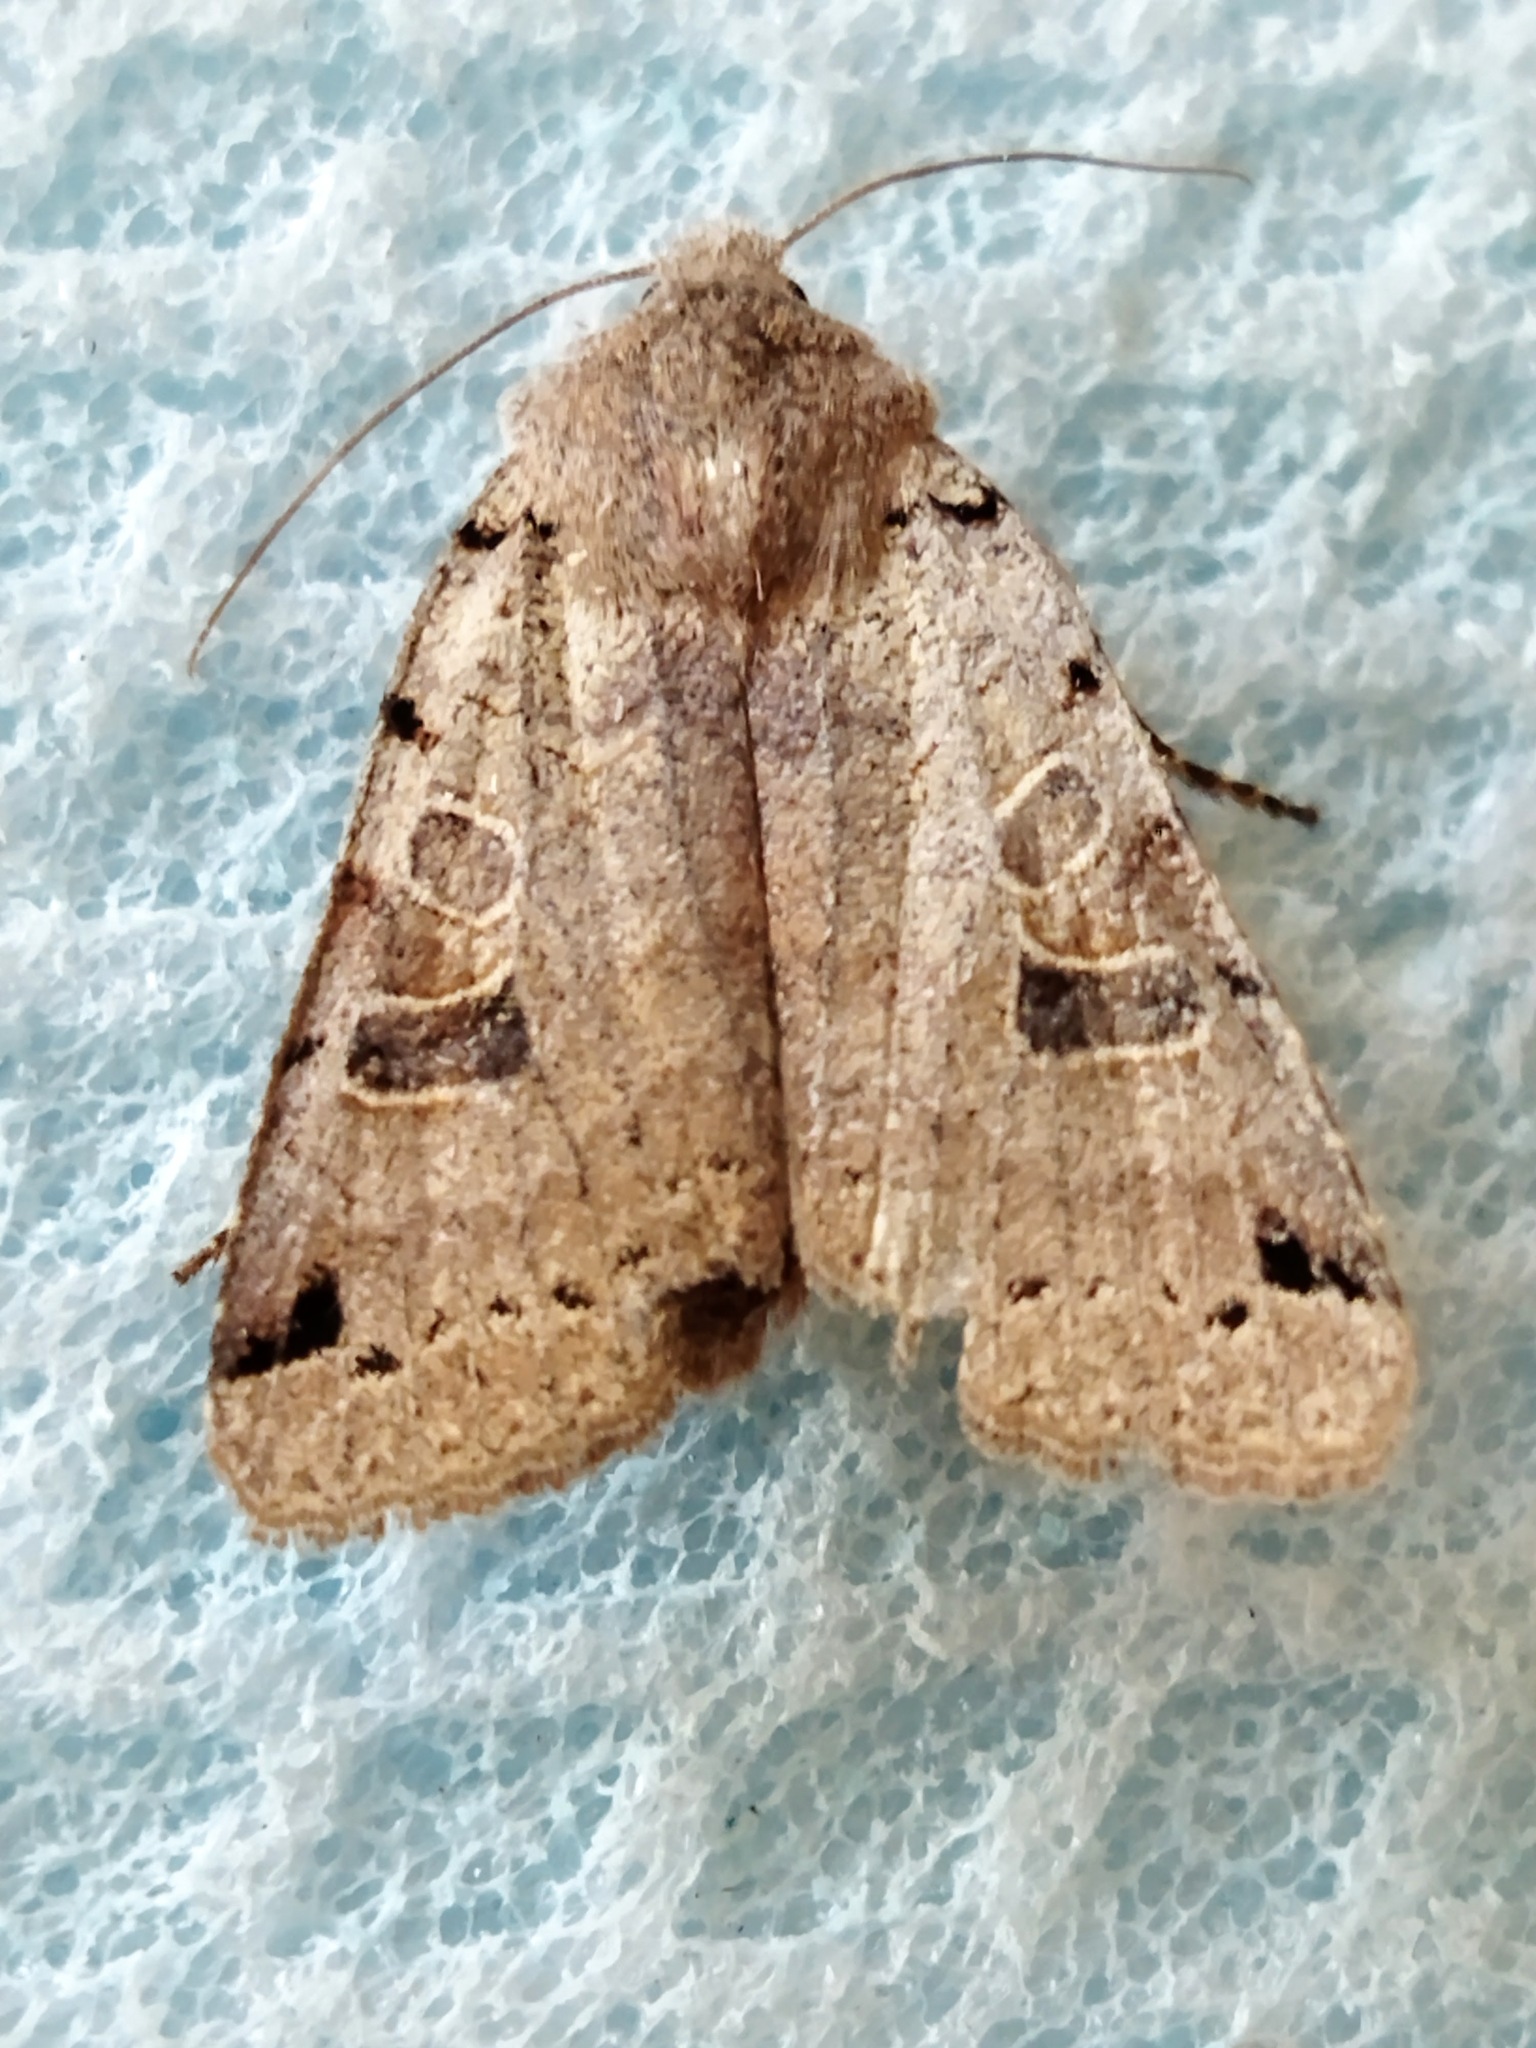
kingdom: Animalia
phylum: Arthropoda
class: Insecta
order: Lepidoptera
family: Noctuidae
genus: Agrochola
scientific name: Agrochola litura
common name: Brown-spot pinion
